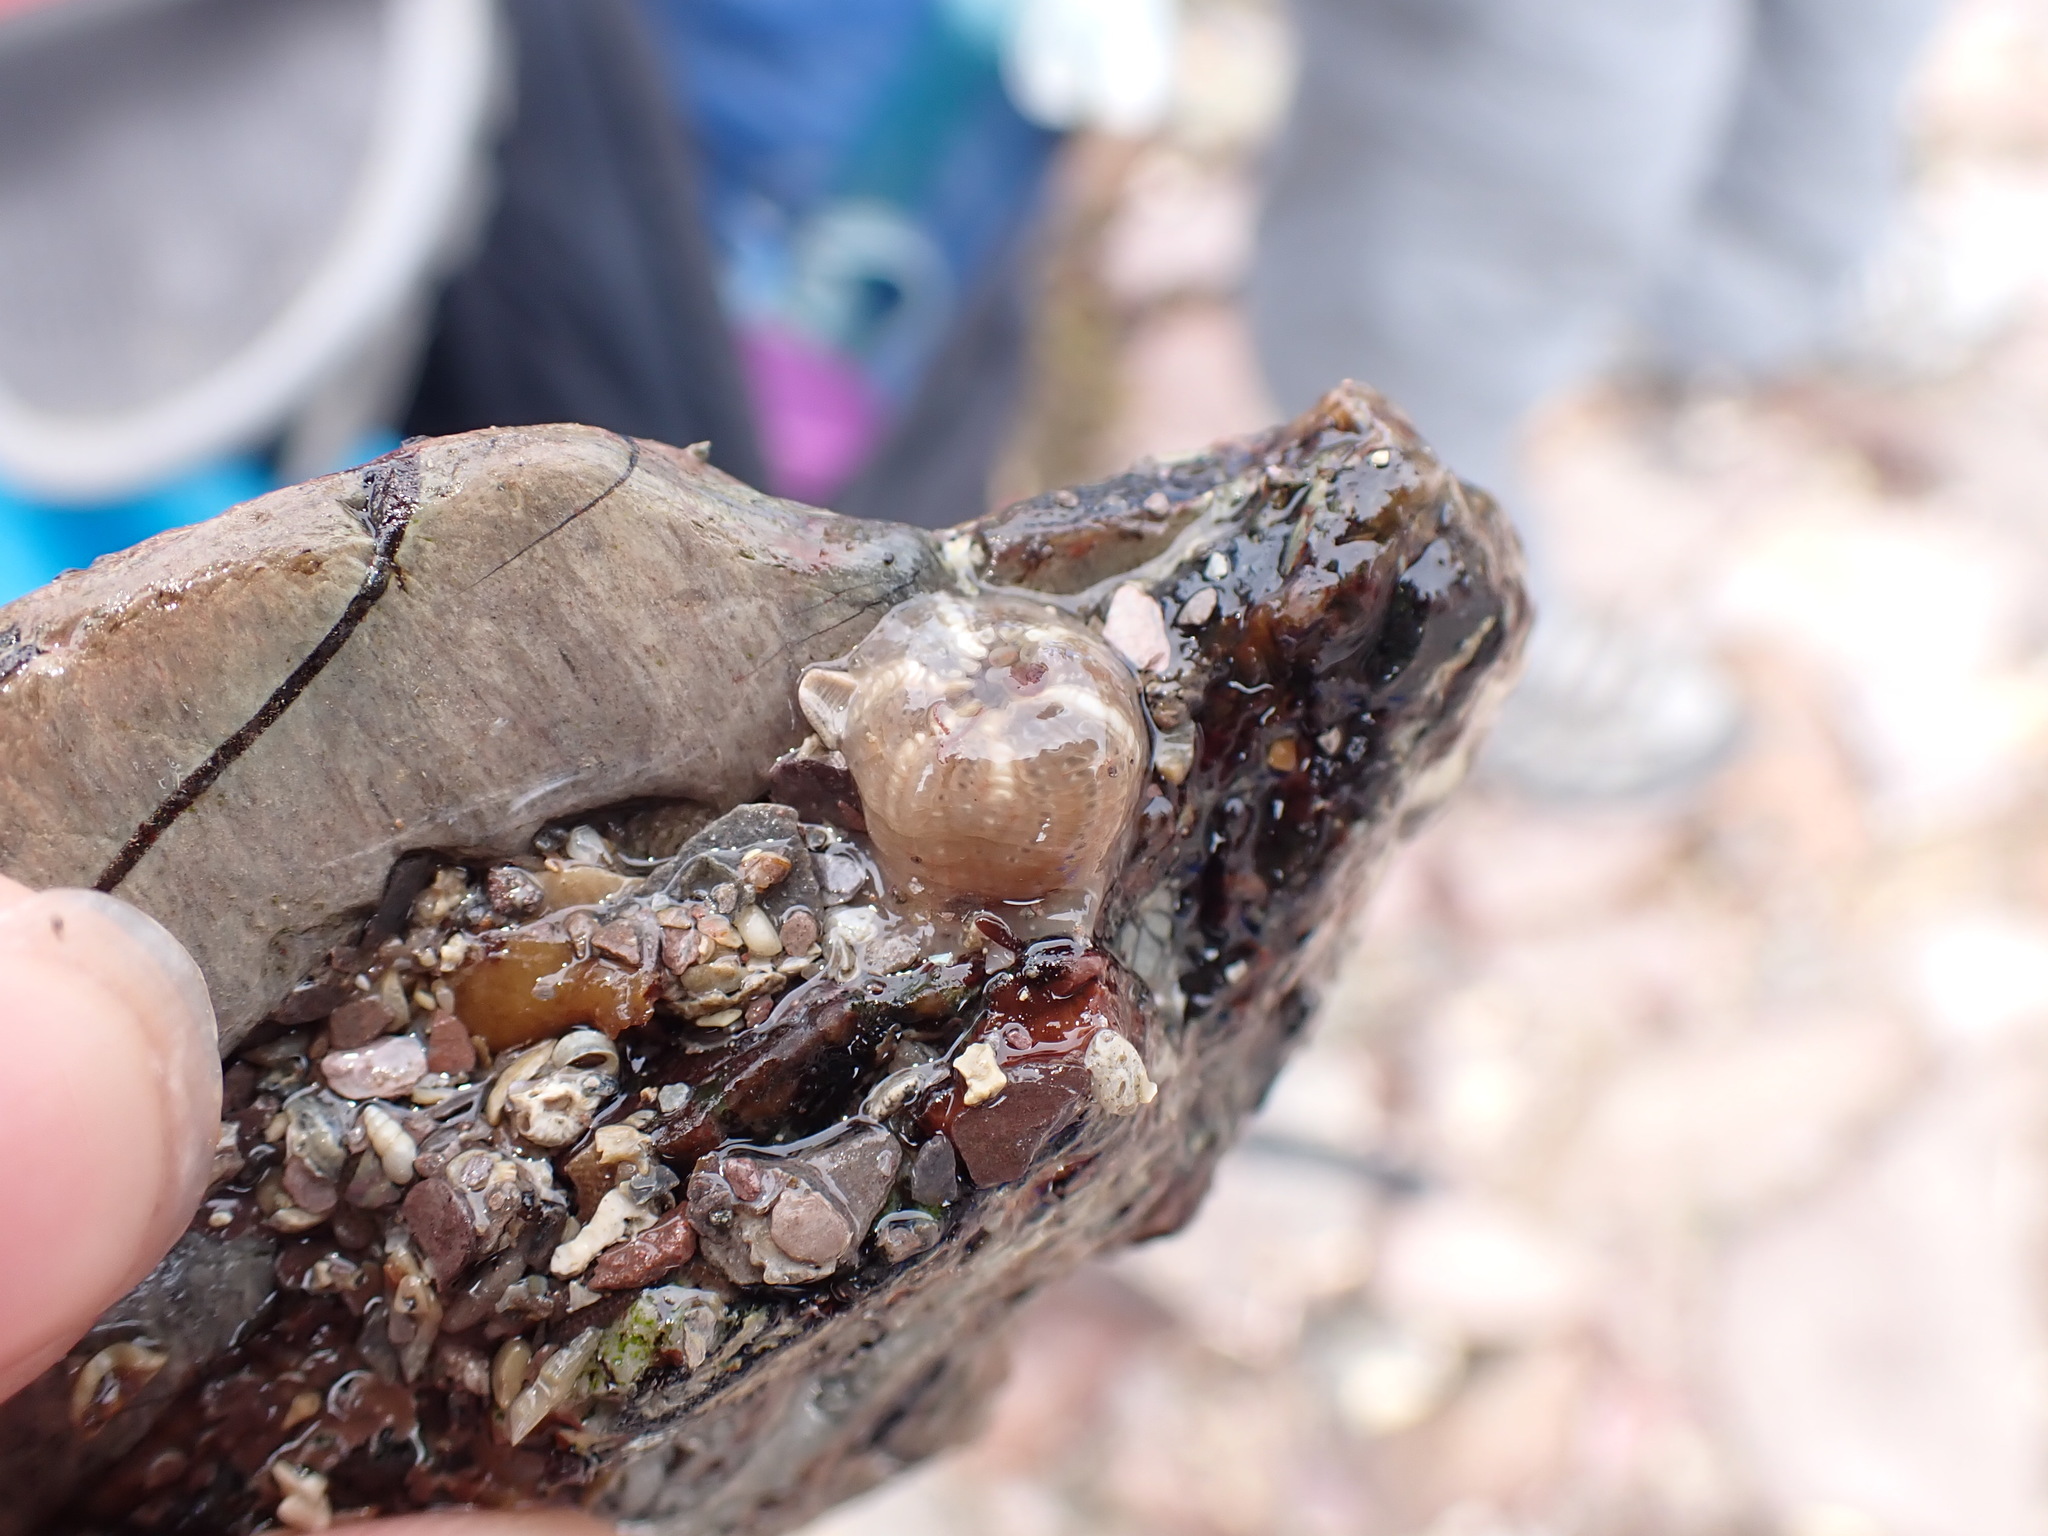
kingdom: Animalia
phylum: Cnidaria
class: Anthozoa
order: Actiniaria
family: Actiniidae
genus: Bunodactis
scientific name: Bunodactis verrucosa
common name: Gem anemone
